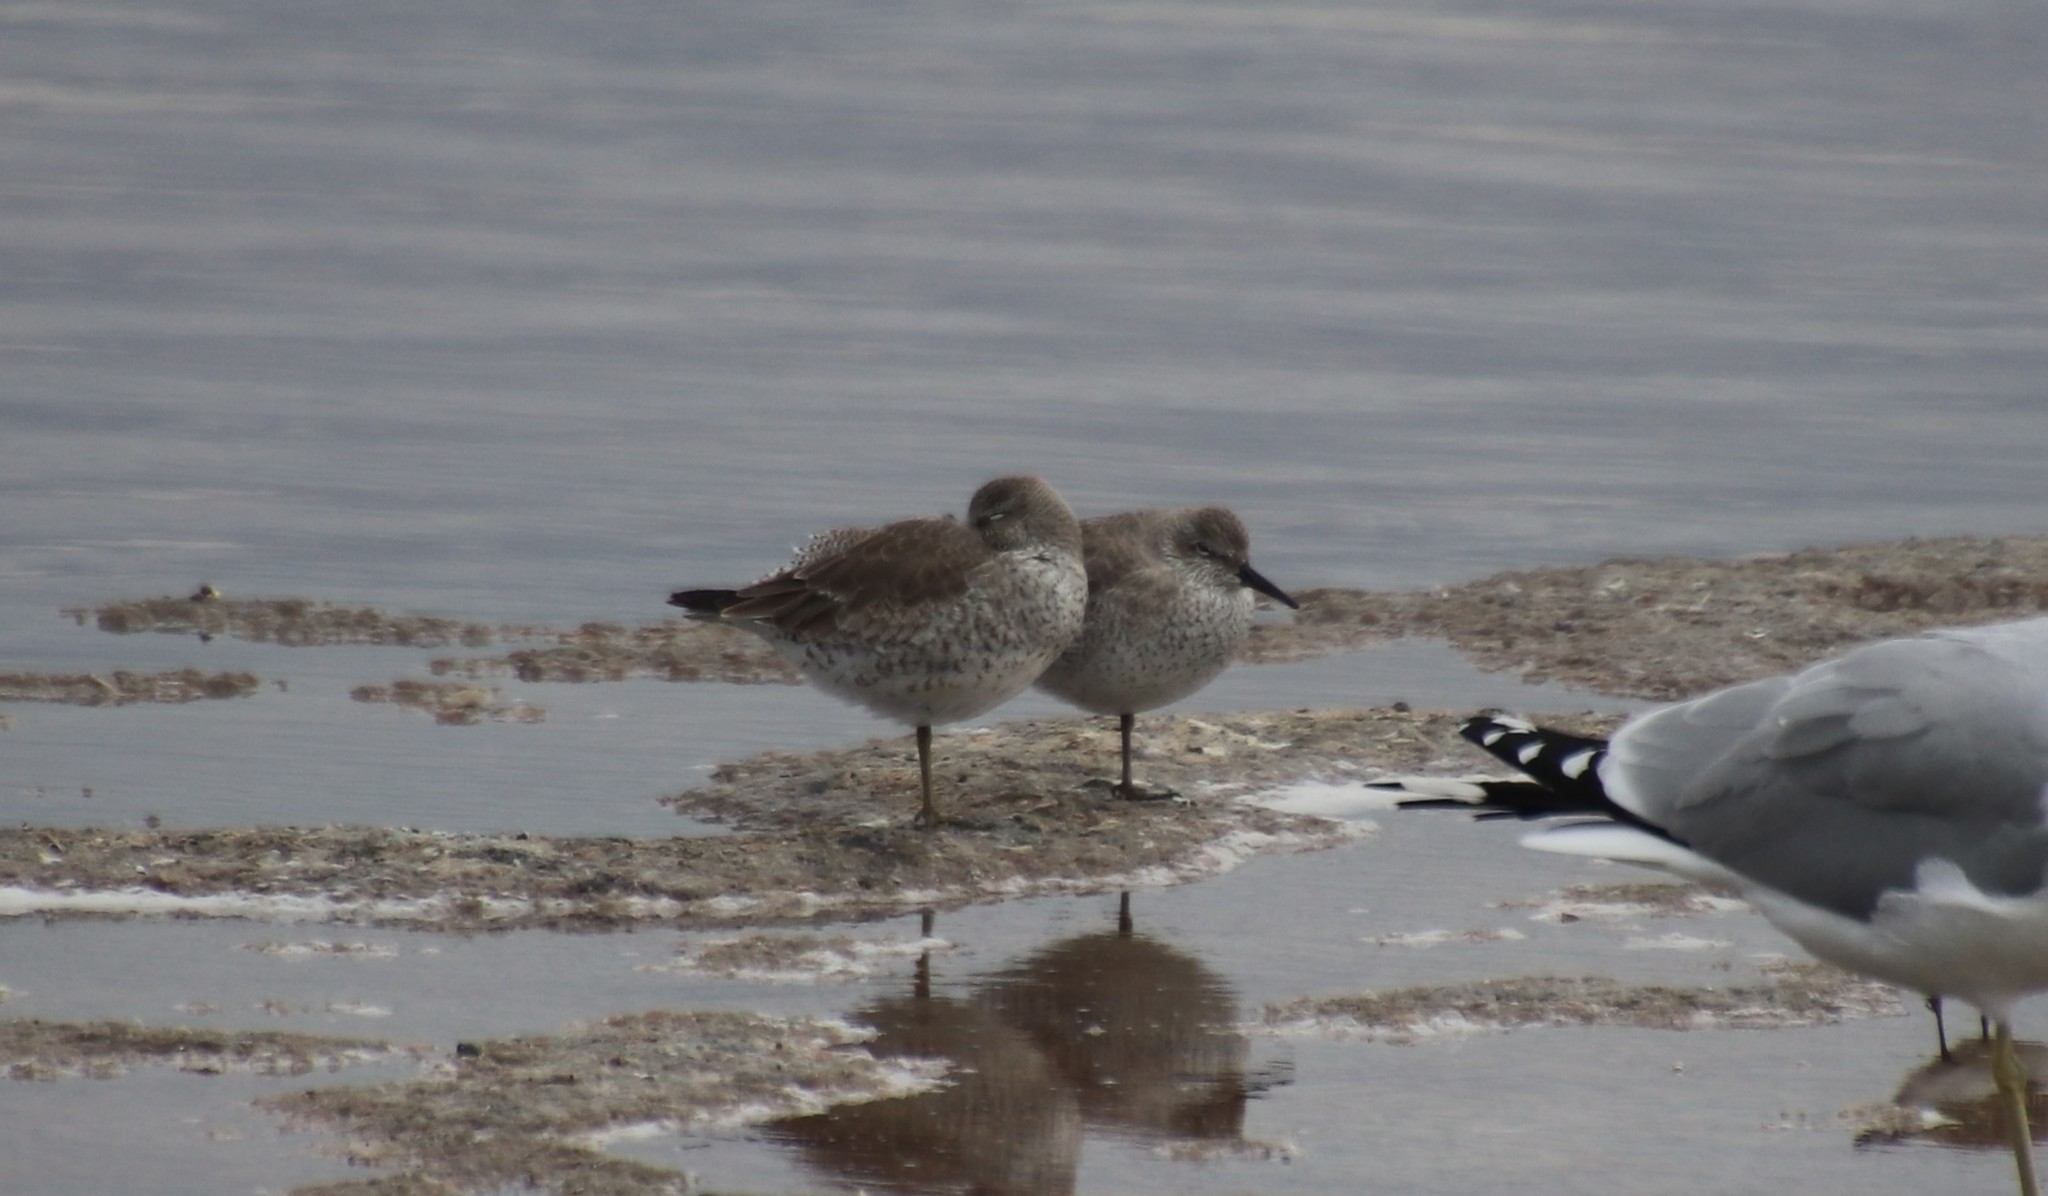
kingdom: Animalia
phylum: Chordata
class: Aves
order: Charadriiformes
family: Scolopacidae
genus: Calidris
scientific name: Calidris canutus
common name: Red knot
